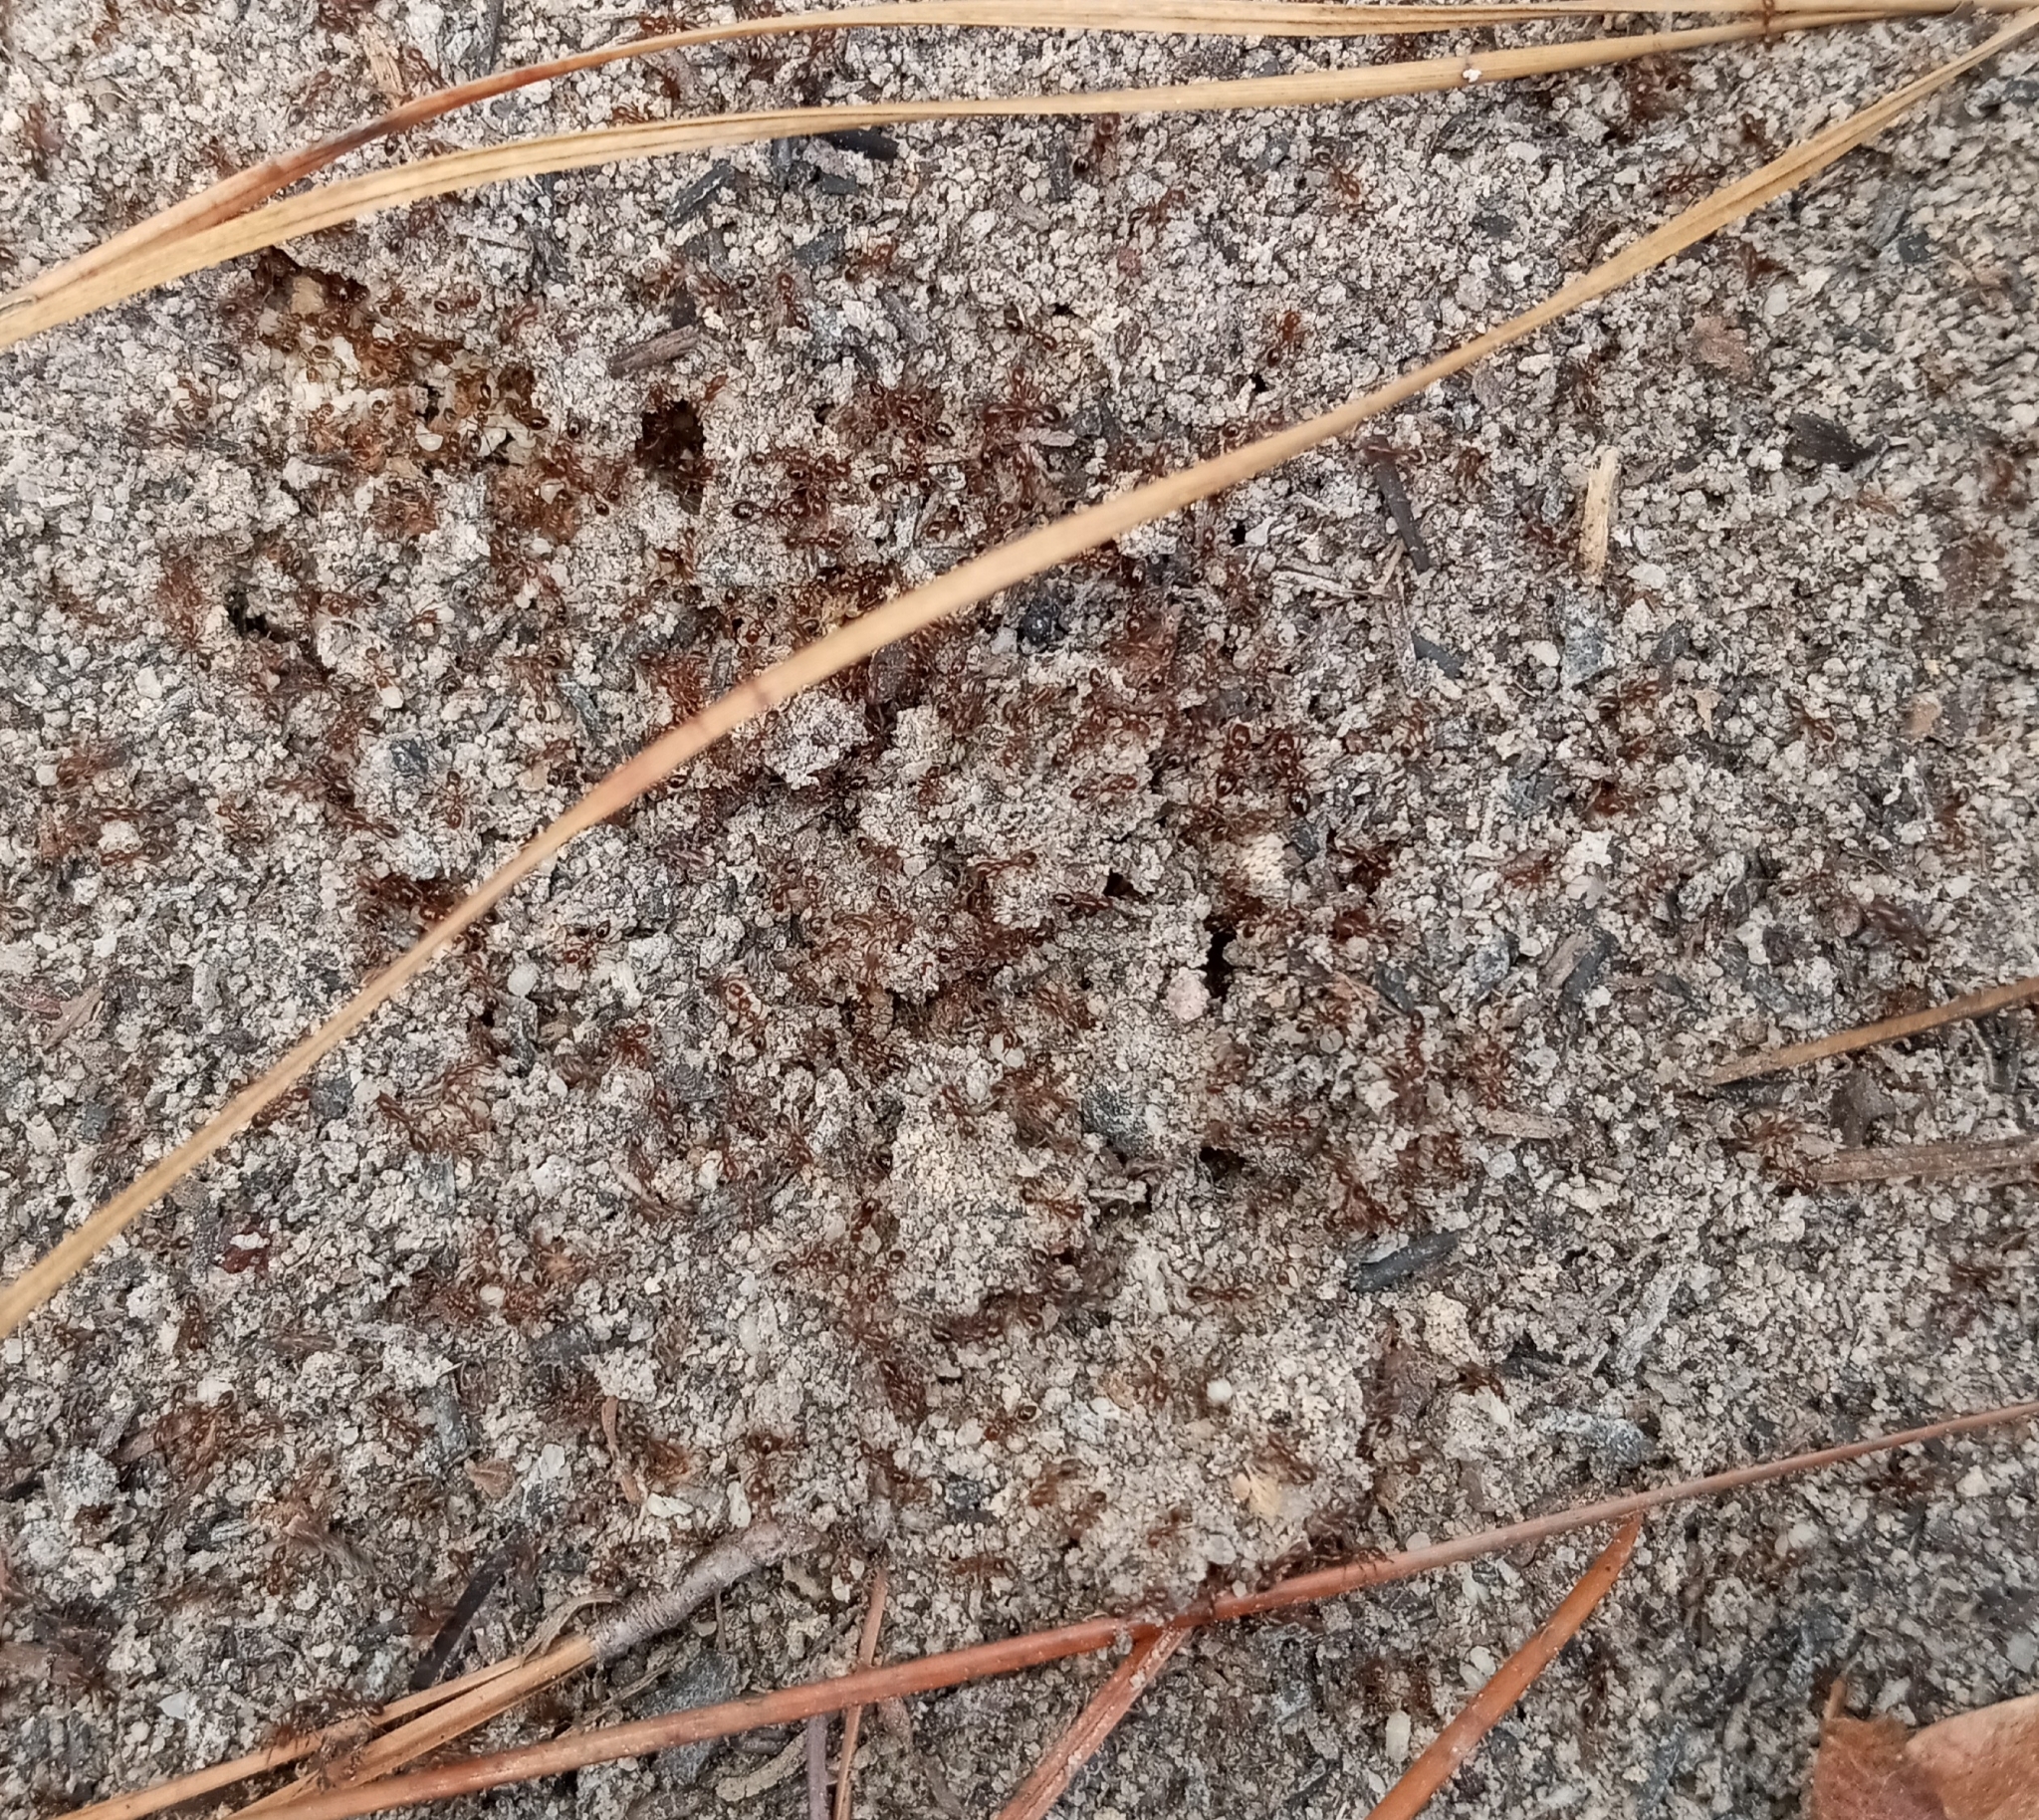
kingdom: Animalia
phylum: Arthropoda
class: Insecta
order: Hymenoptera
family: Formicidae
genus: Solenopsis
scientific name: Solenopsis invicta
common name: Red imported fire ant
